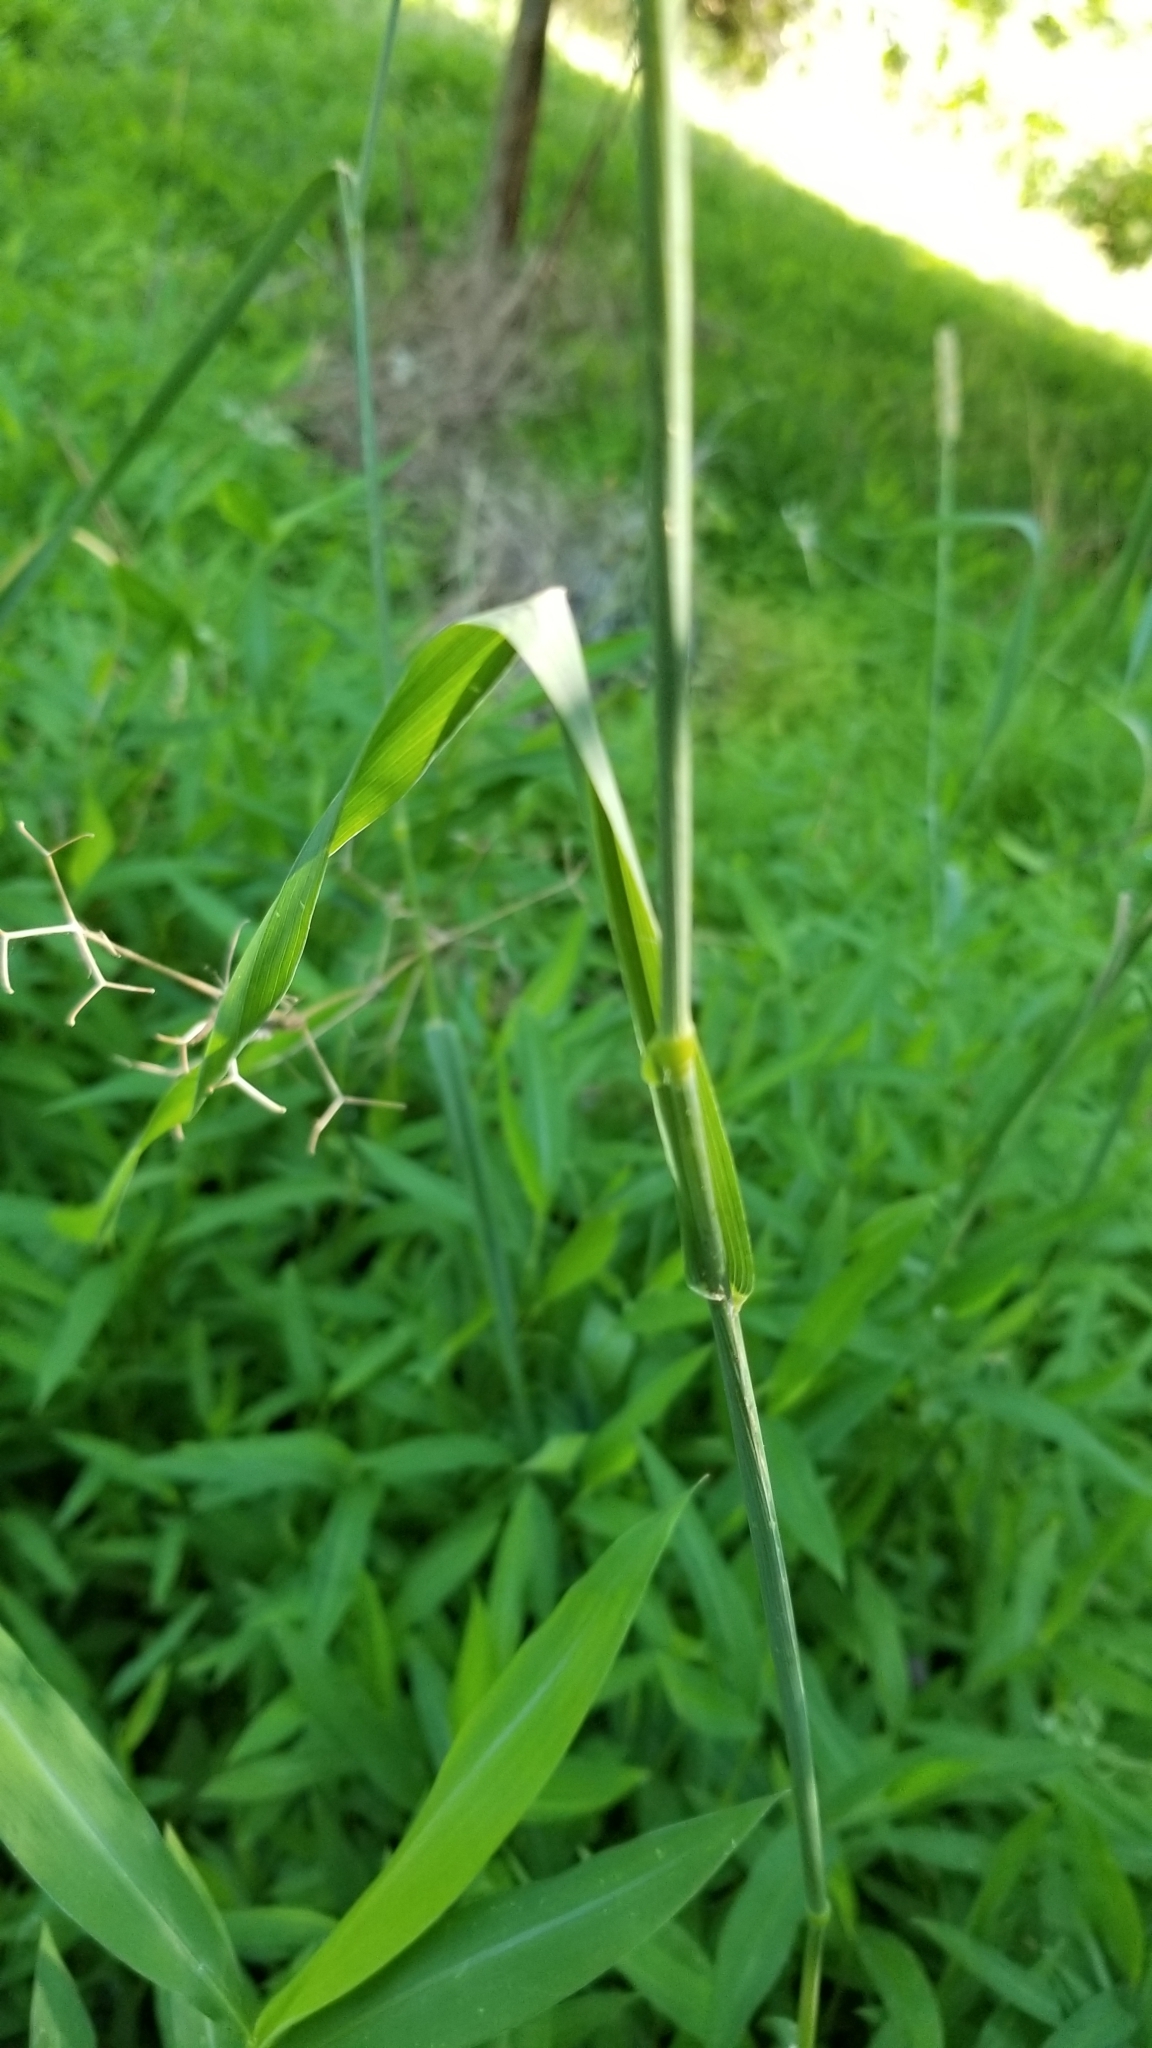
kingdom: Plantae
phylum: Tracheophyta
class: Liliopsida
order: Poales
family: Poaceae
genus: Phleum
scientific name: Phleum pratense
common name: Timothy grass
